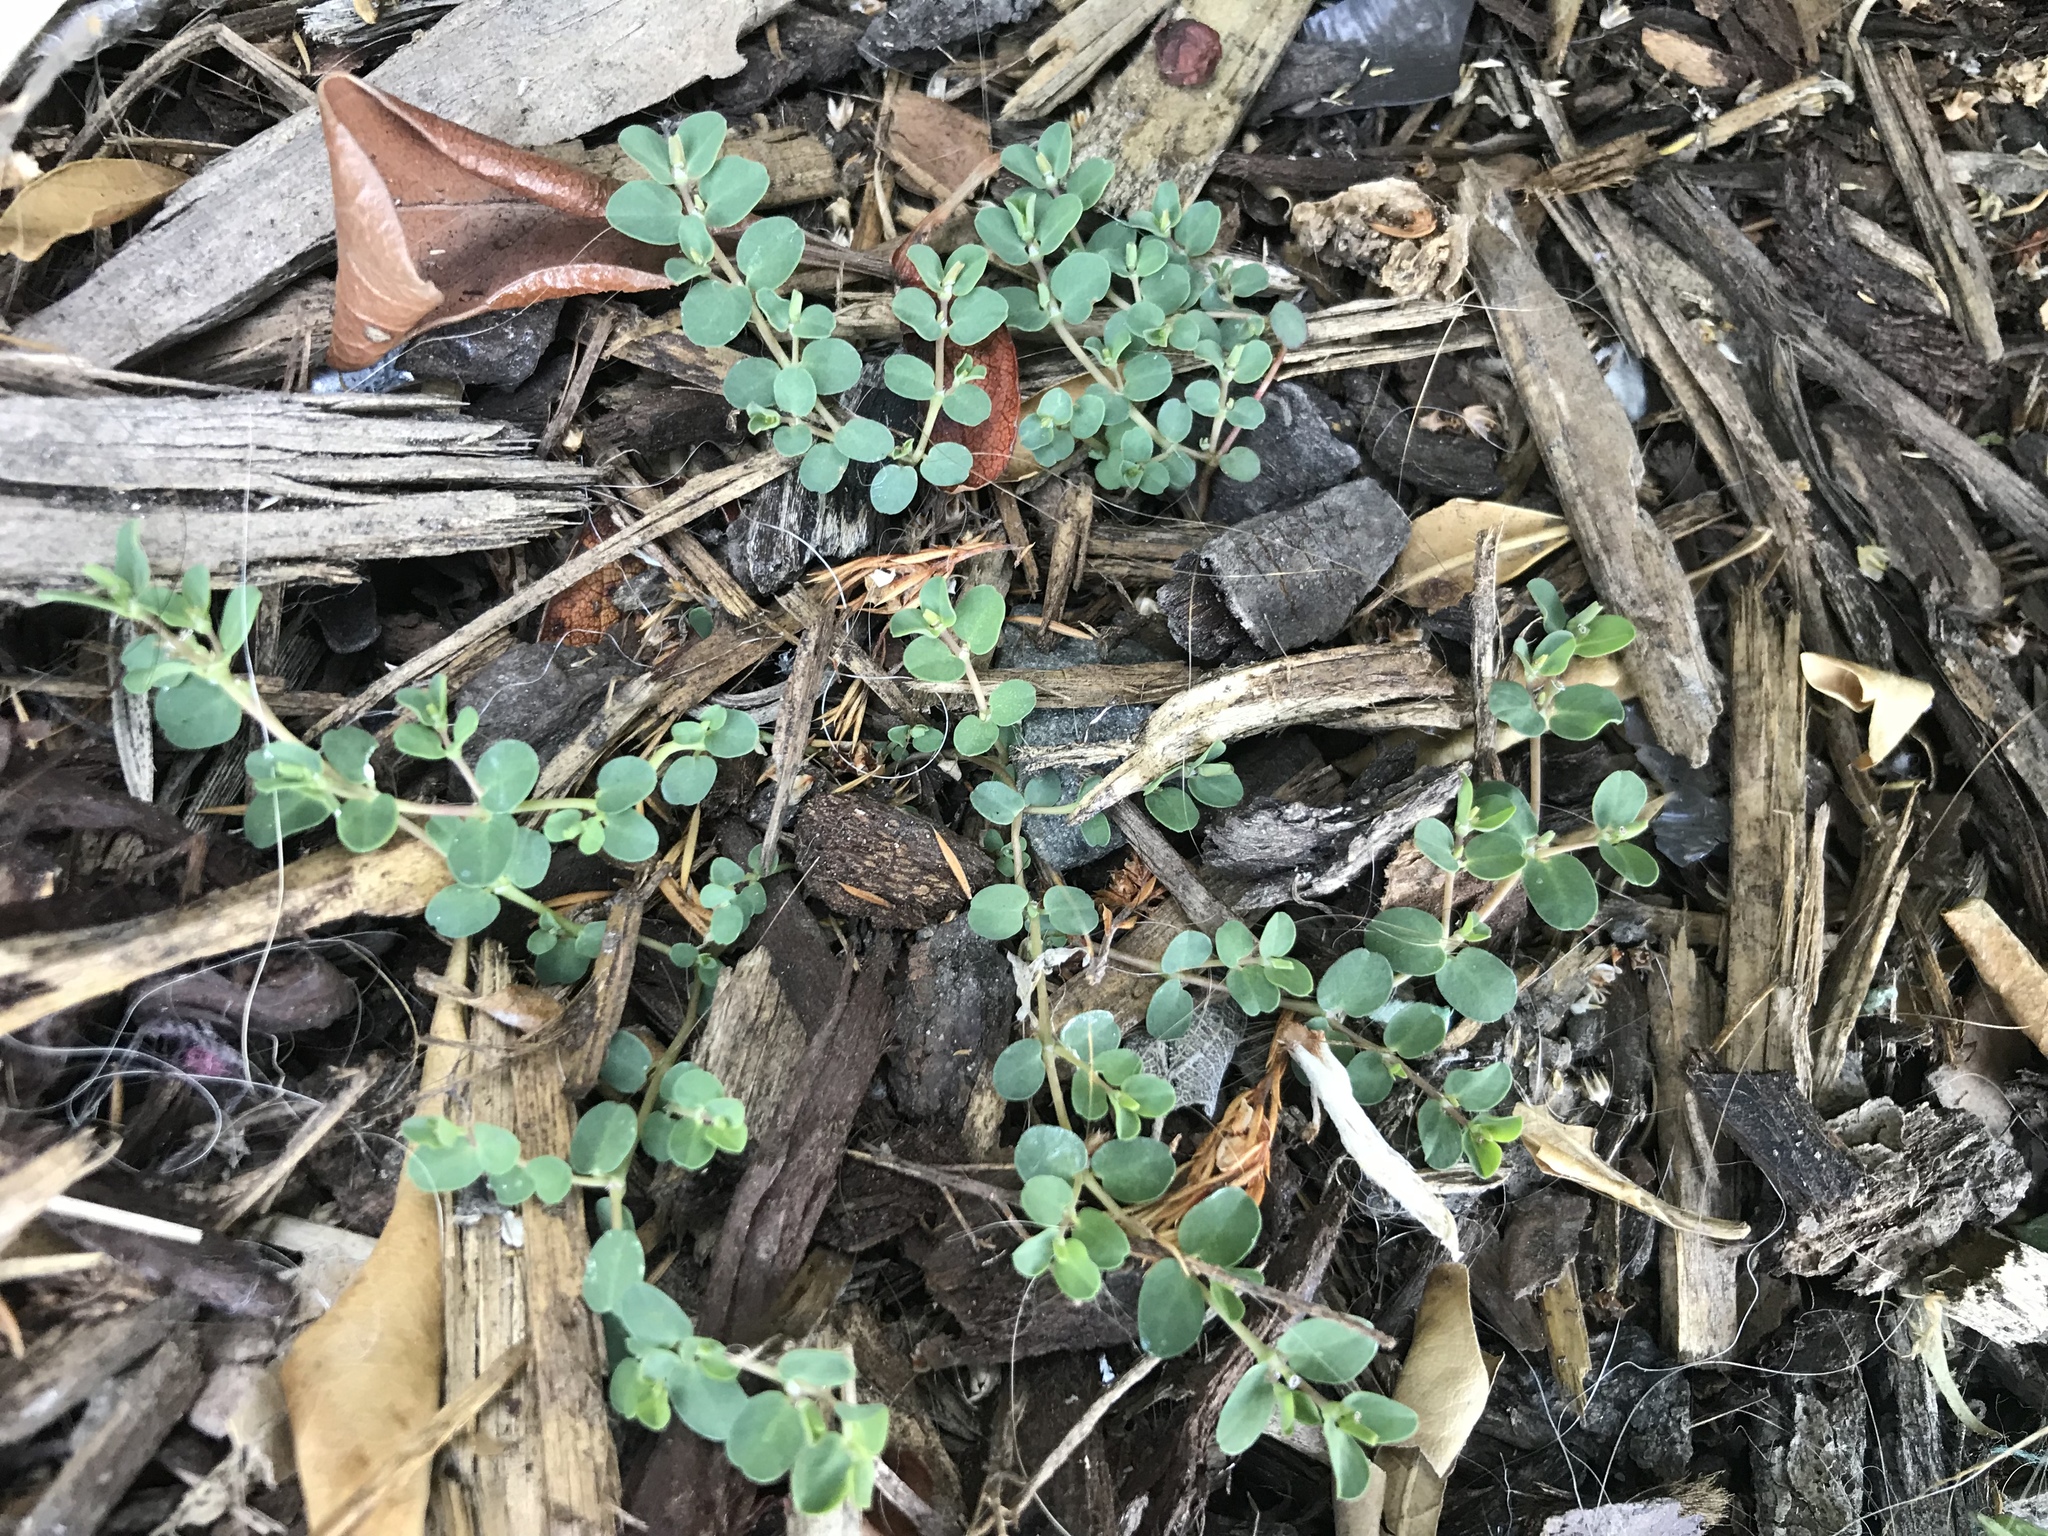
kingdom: Plantae
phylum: Tracheophyta
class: Magnoliopsida
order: Malpighiales
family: Euphorbiaceae
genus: Euphorbia
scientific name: Euphorbia serpens
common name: Matted sandmat
